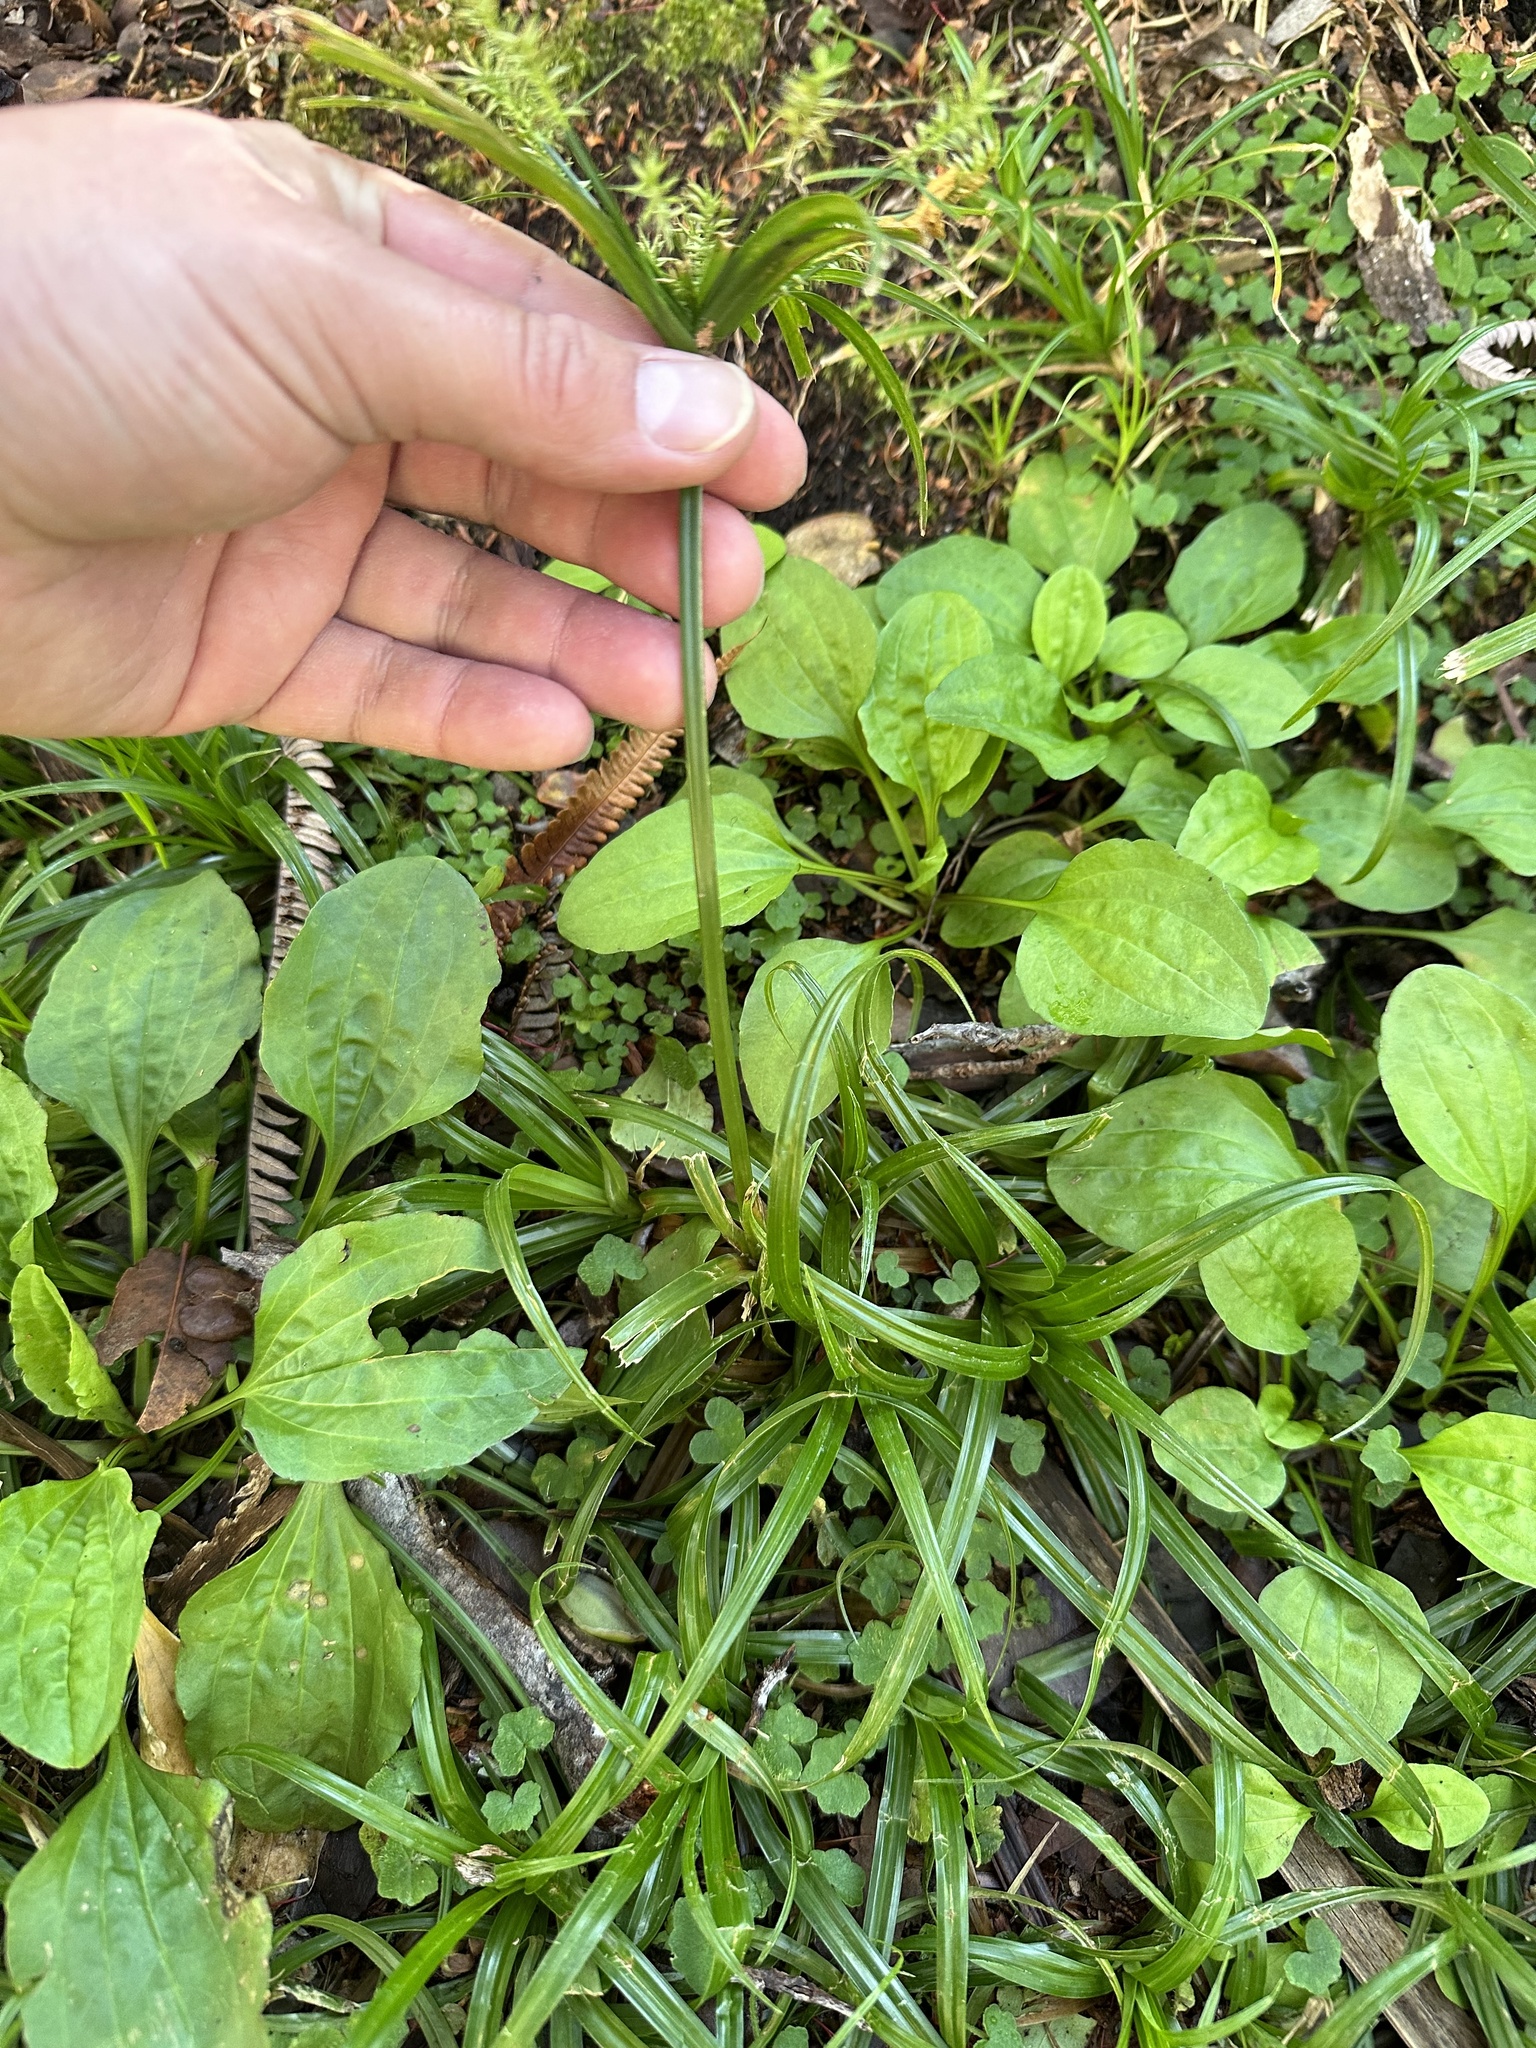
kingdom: Plantae
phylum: Tracheophyta
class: Liliopsida
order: Poales
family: Cyperaceae
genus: Cyperus
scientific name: Cyperus meyenianus
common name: Meyen's flatsedge
